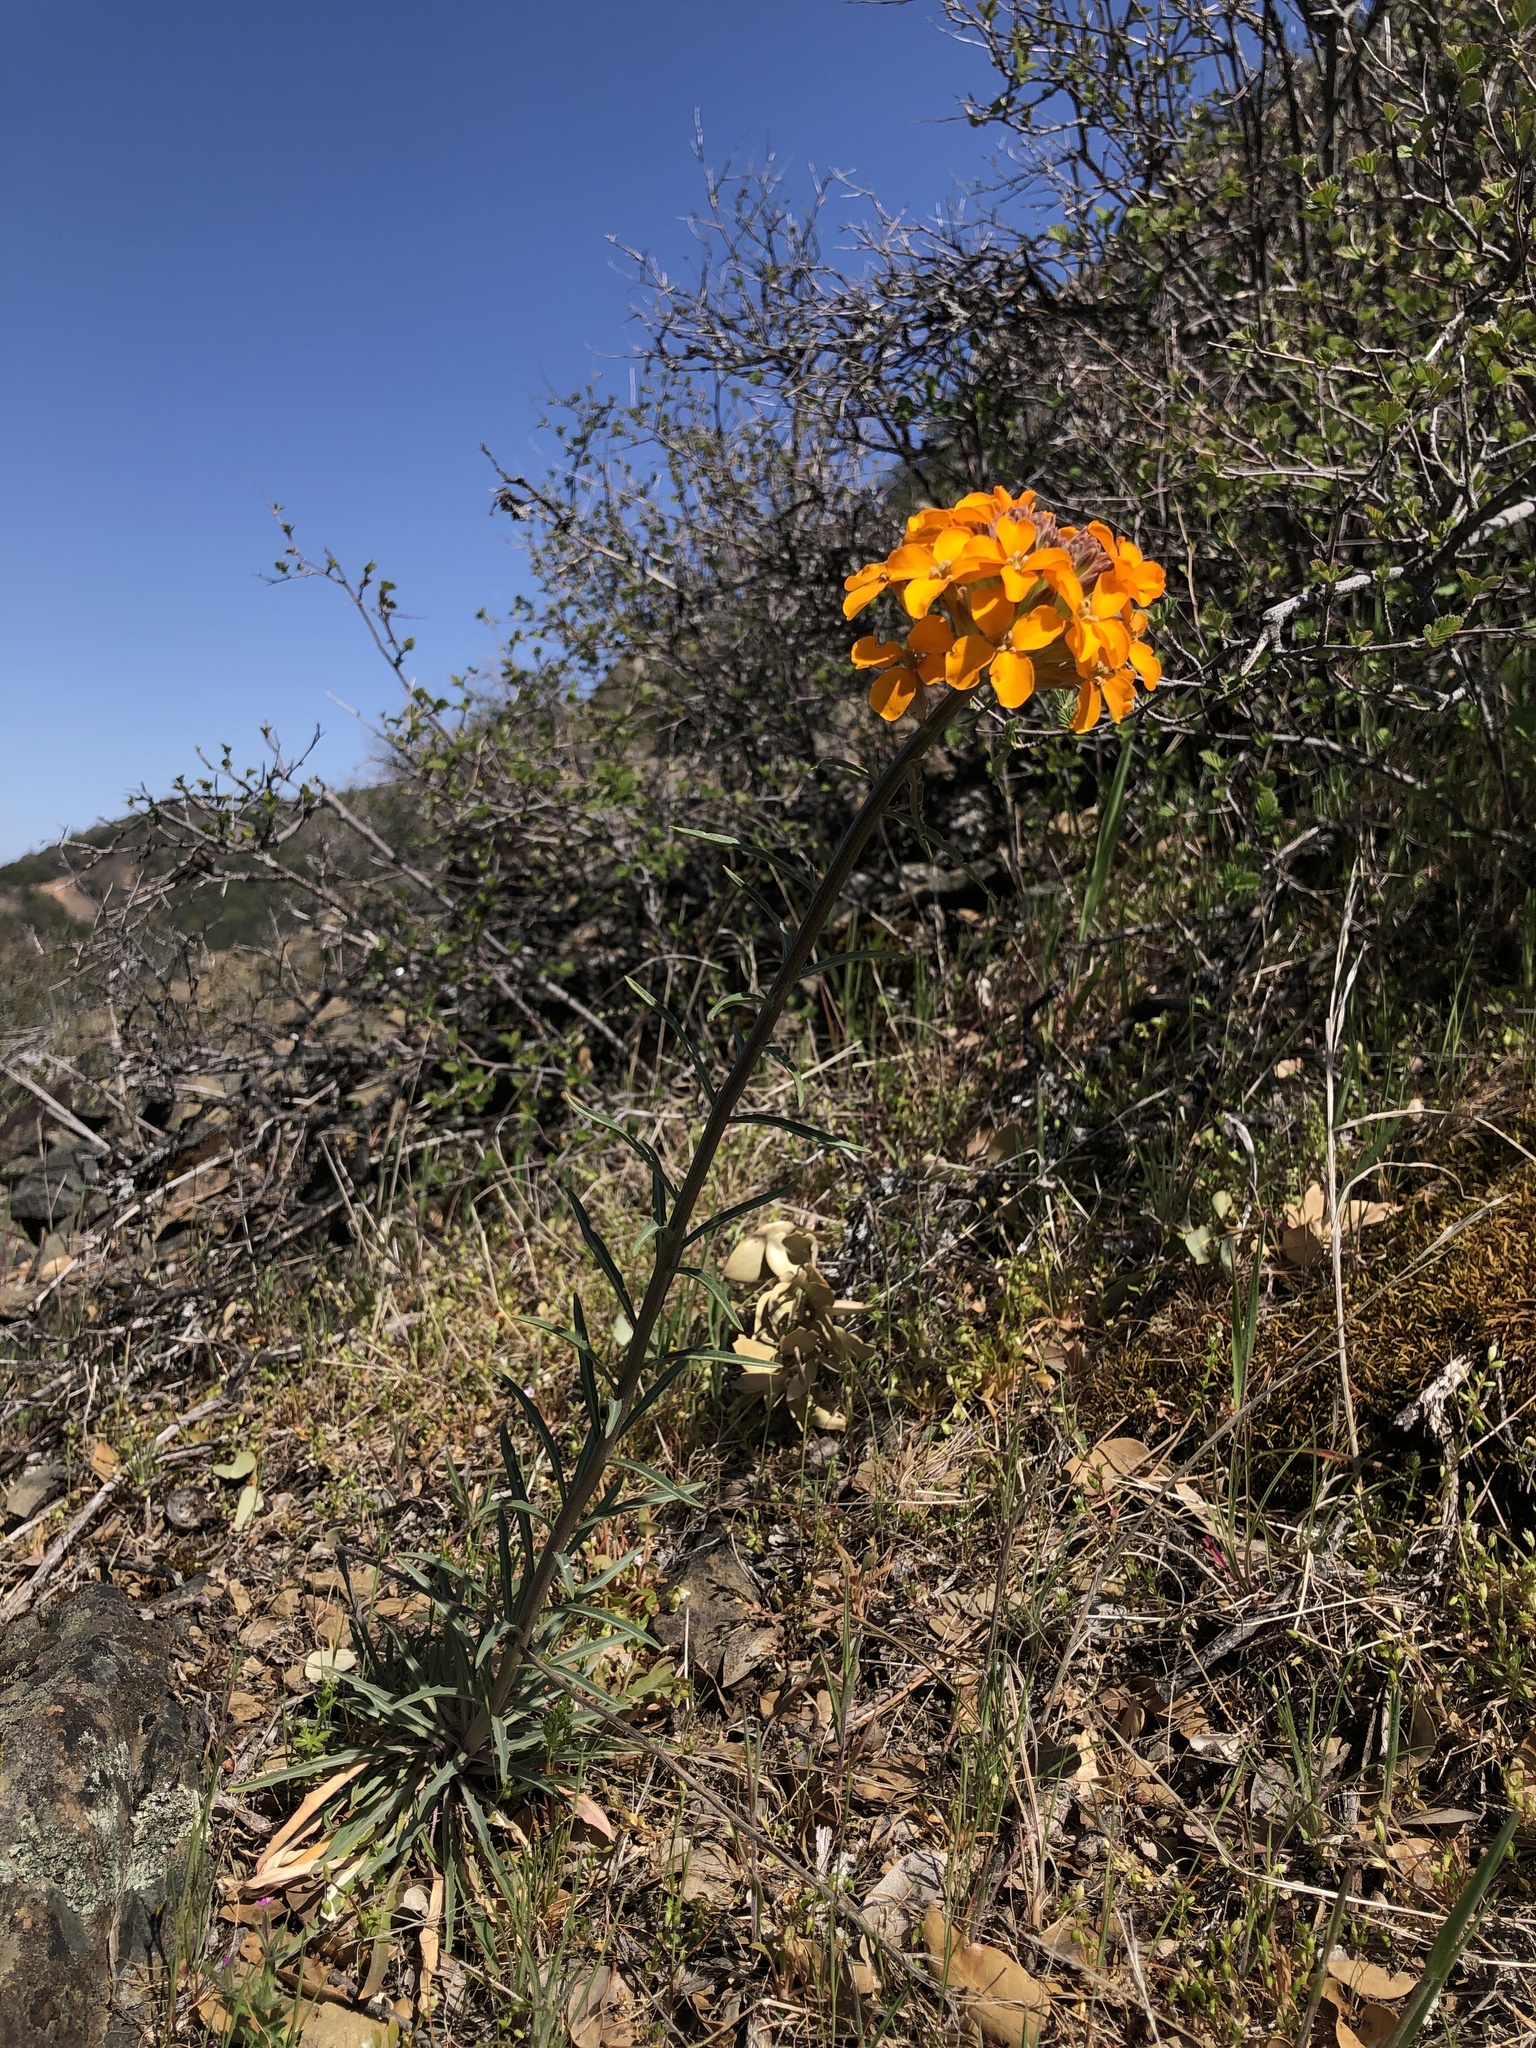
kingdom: Plantae
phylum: Tracheophyta
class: Magnoliopsida
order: Brassicales
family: Brassicaceae
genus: Erysimum
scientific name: Erysimum capitatum
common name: Western wallflower
